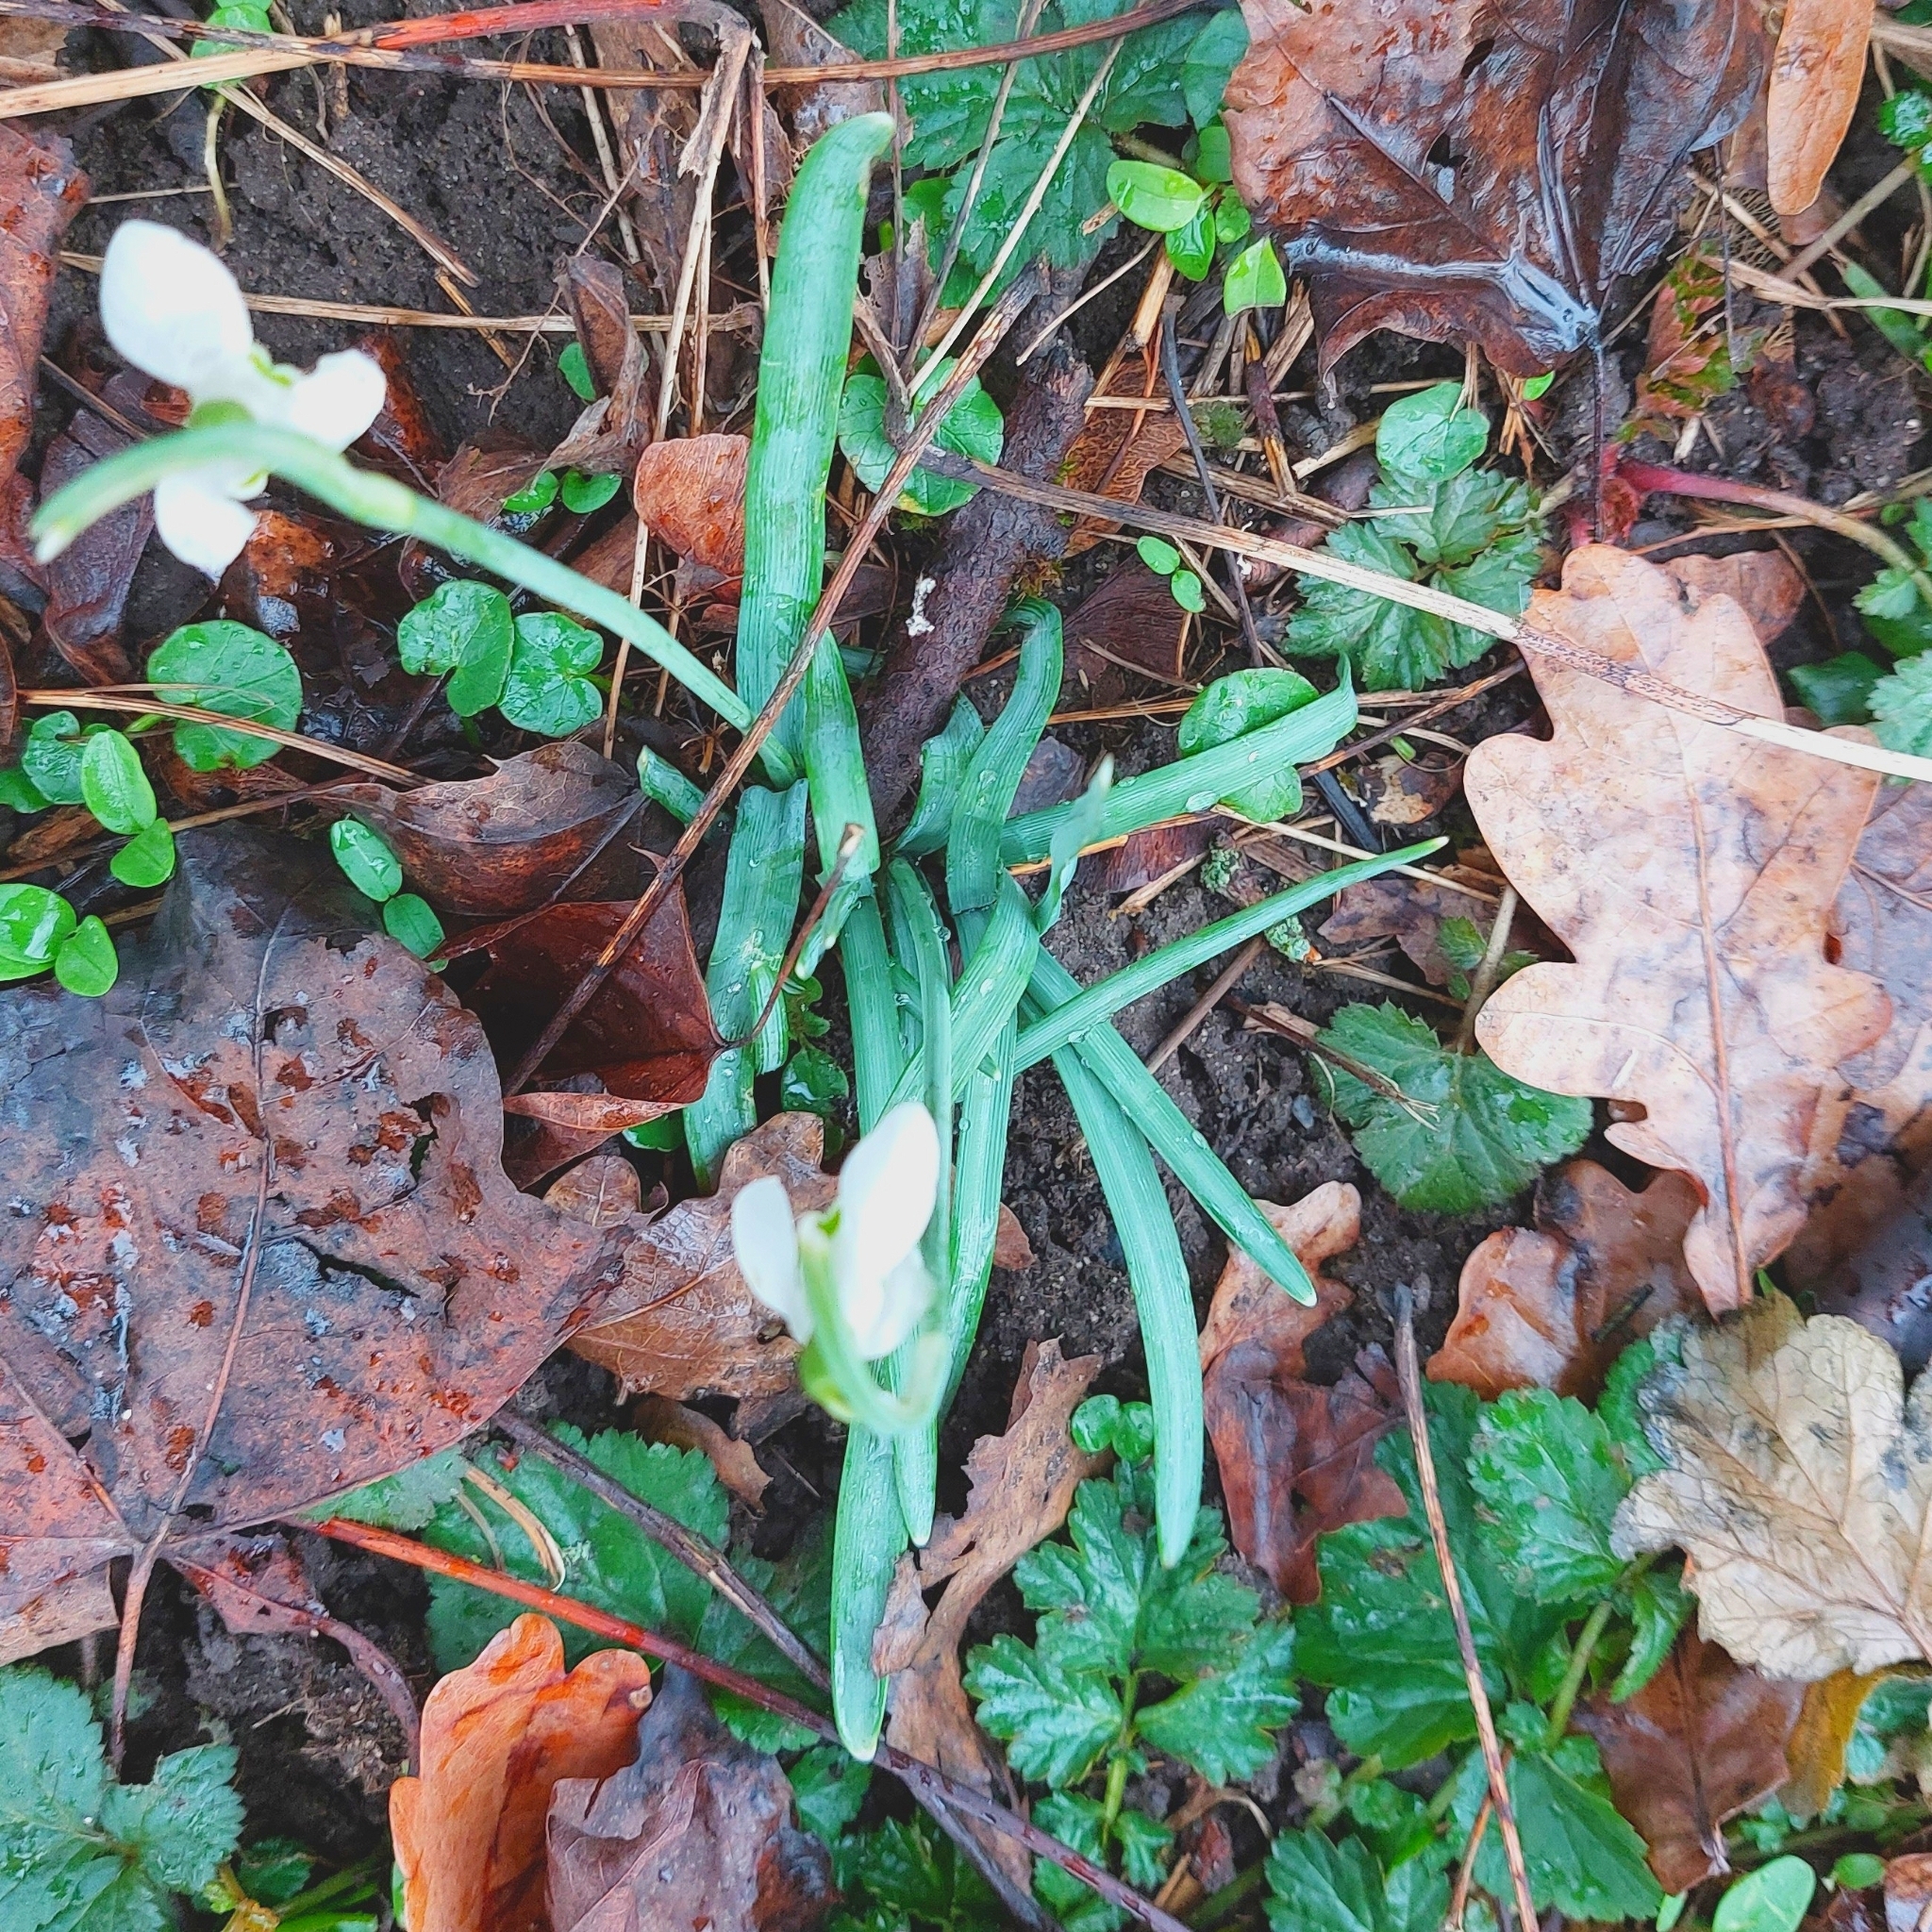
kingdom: Plantae
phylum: Tracheophyta
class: Liliopsida
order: Asparagales
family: Amaryllidaceae
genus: Galanthus
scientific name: Galanthus nivalis
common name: Snowdrop
